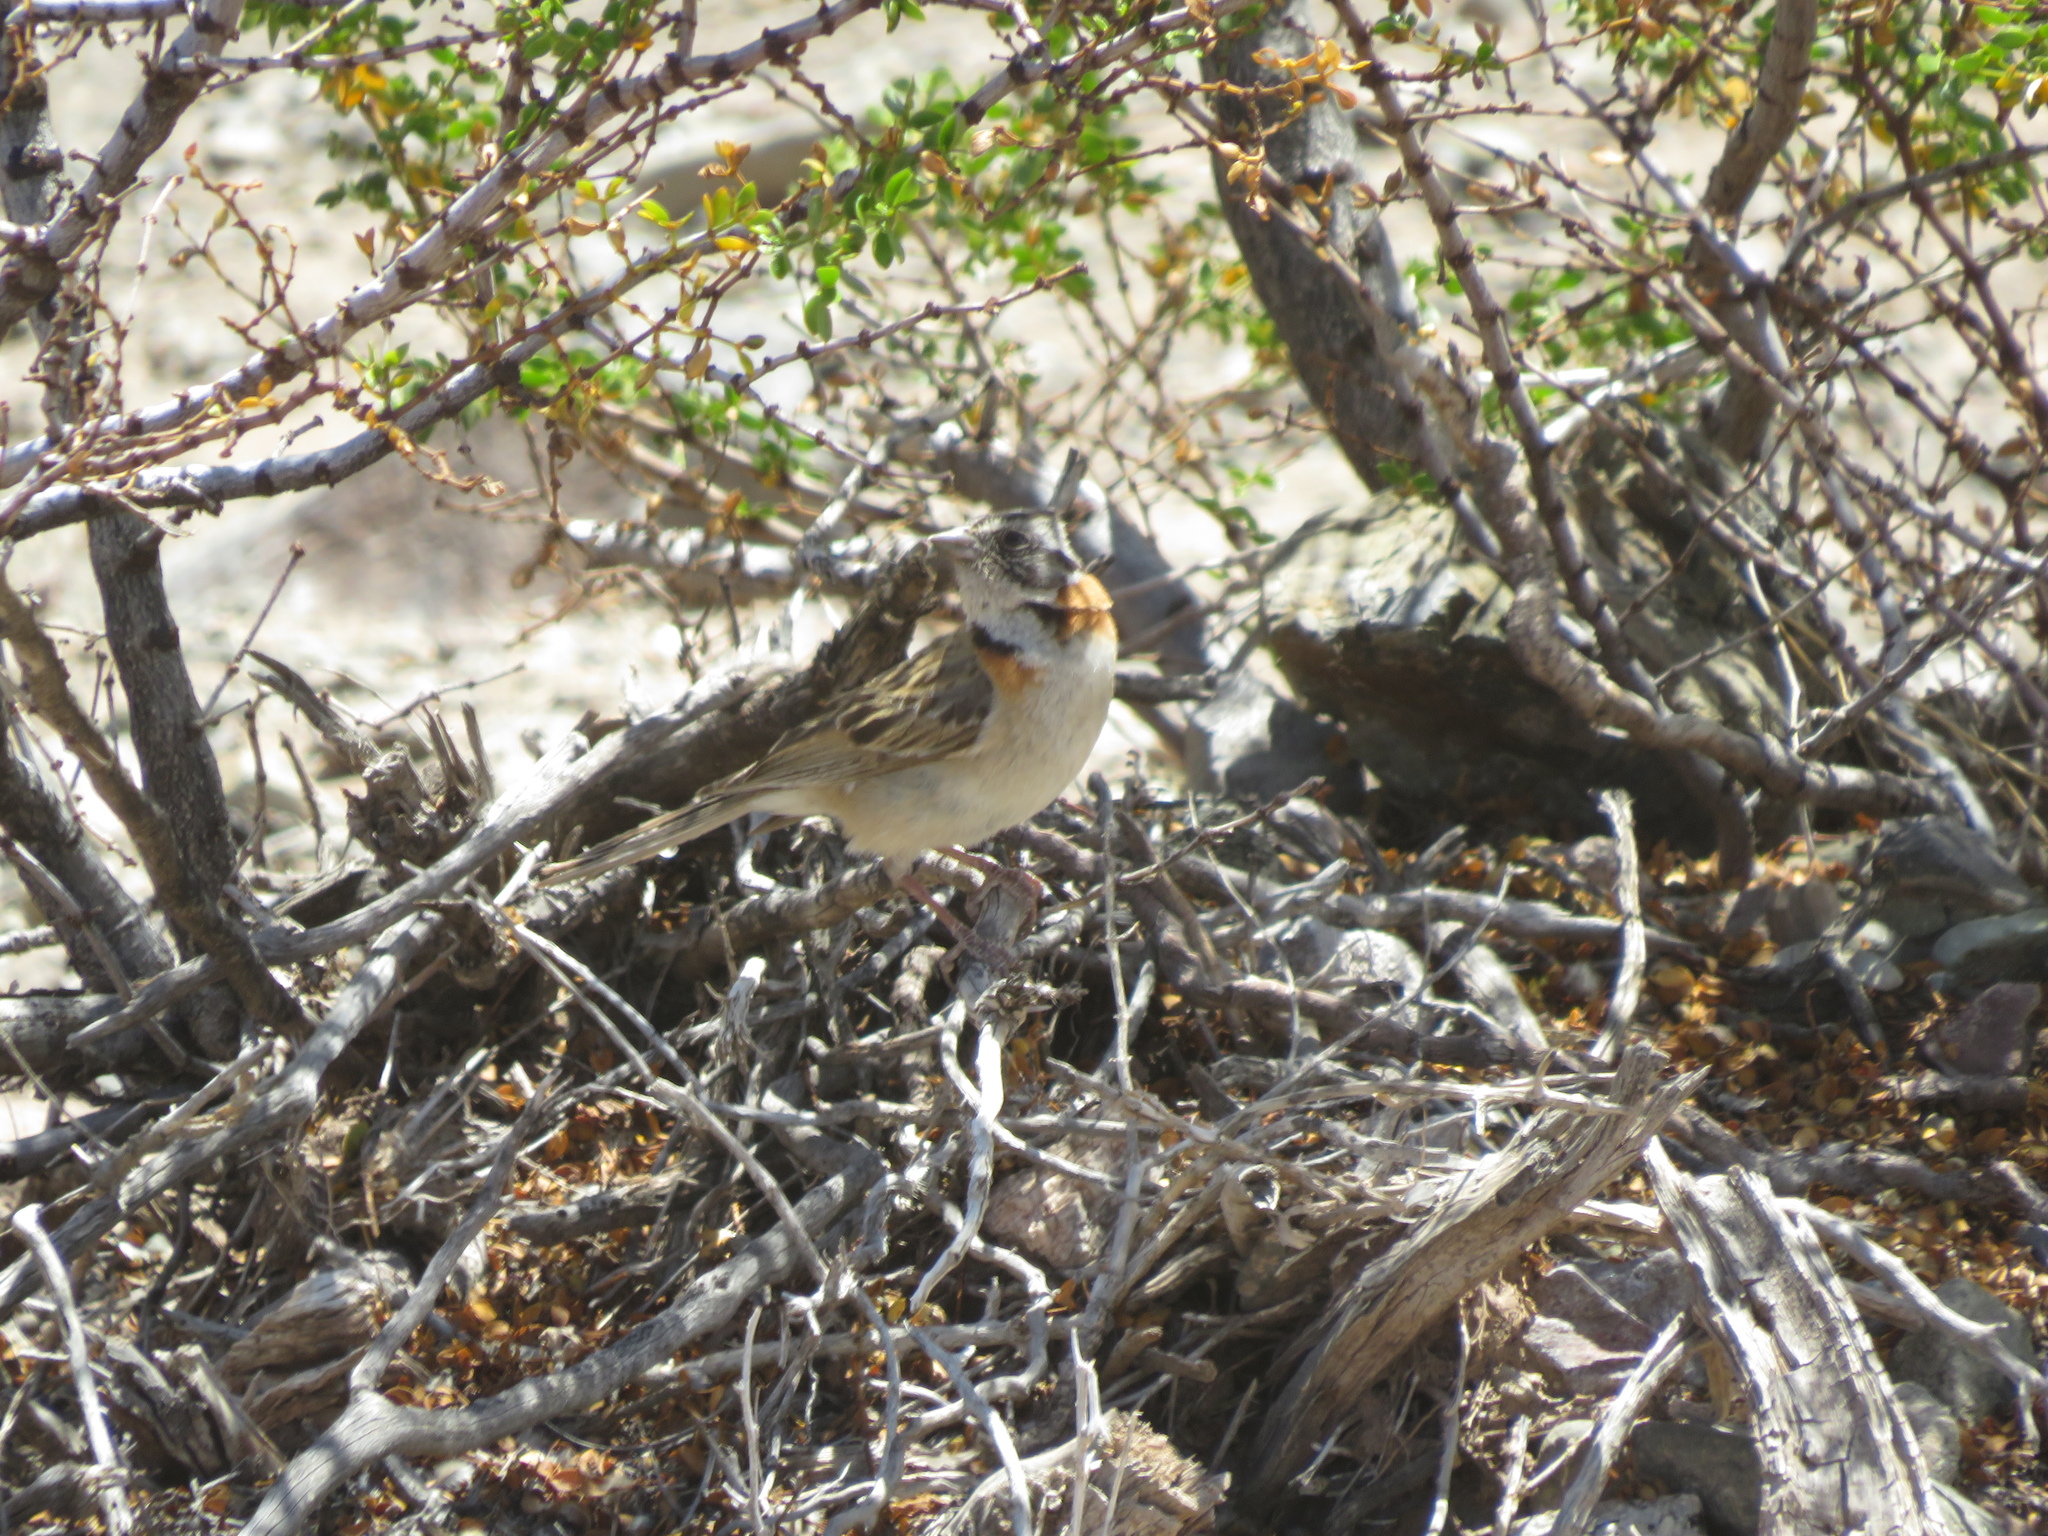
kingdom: Animalia
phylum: Chordata
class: Aves
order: Passeriformes
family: Passerellidae
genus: Zonotrichia
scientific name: Zonotrichia capensis
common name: Rufous-collared sparrow
